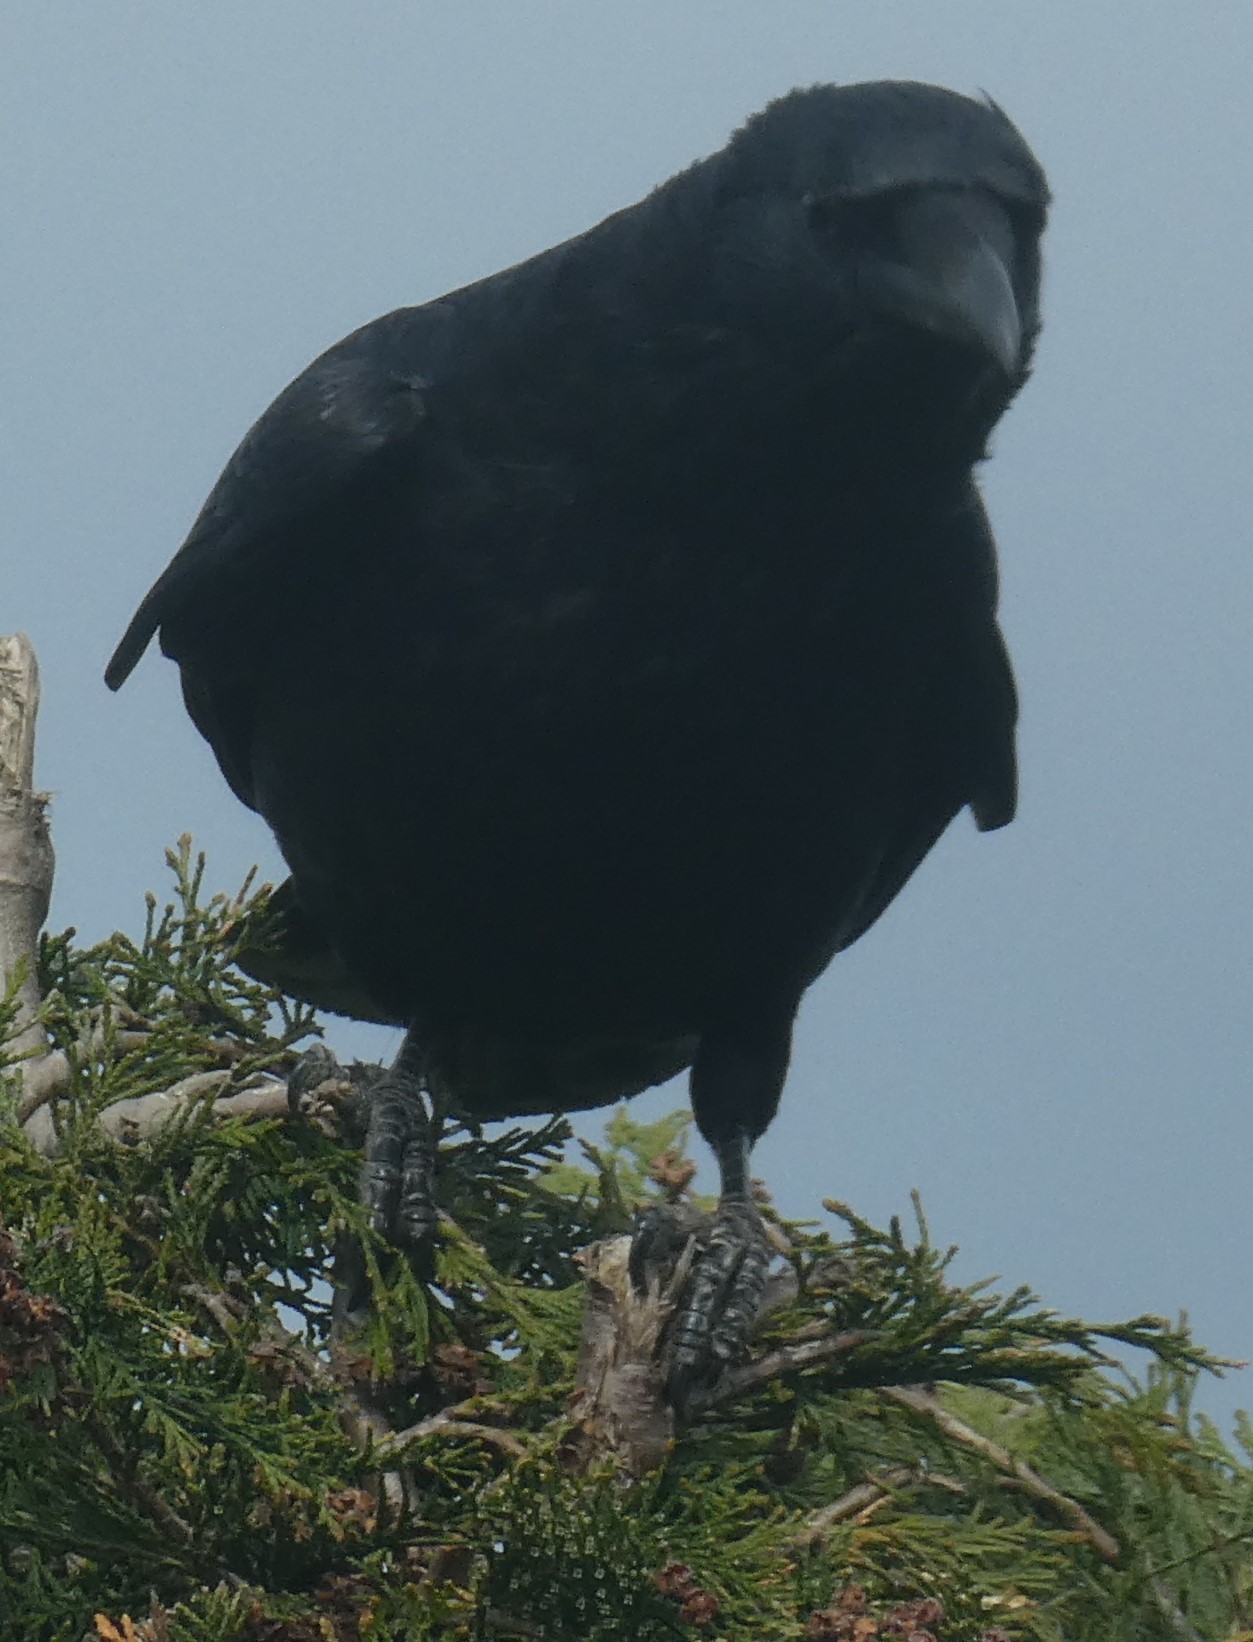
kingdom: Animalia
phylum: Chordata
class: Aves
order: Passeriformes
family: Corvidae
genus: Corvus
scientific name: Corvus corone
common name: Carrion crow
